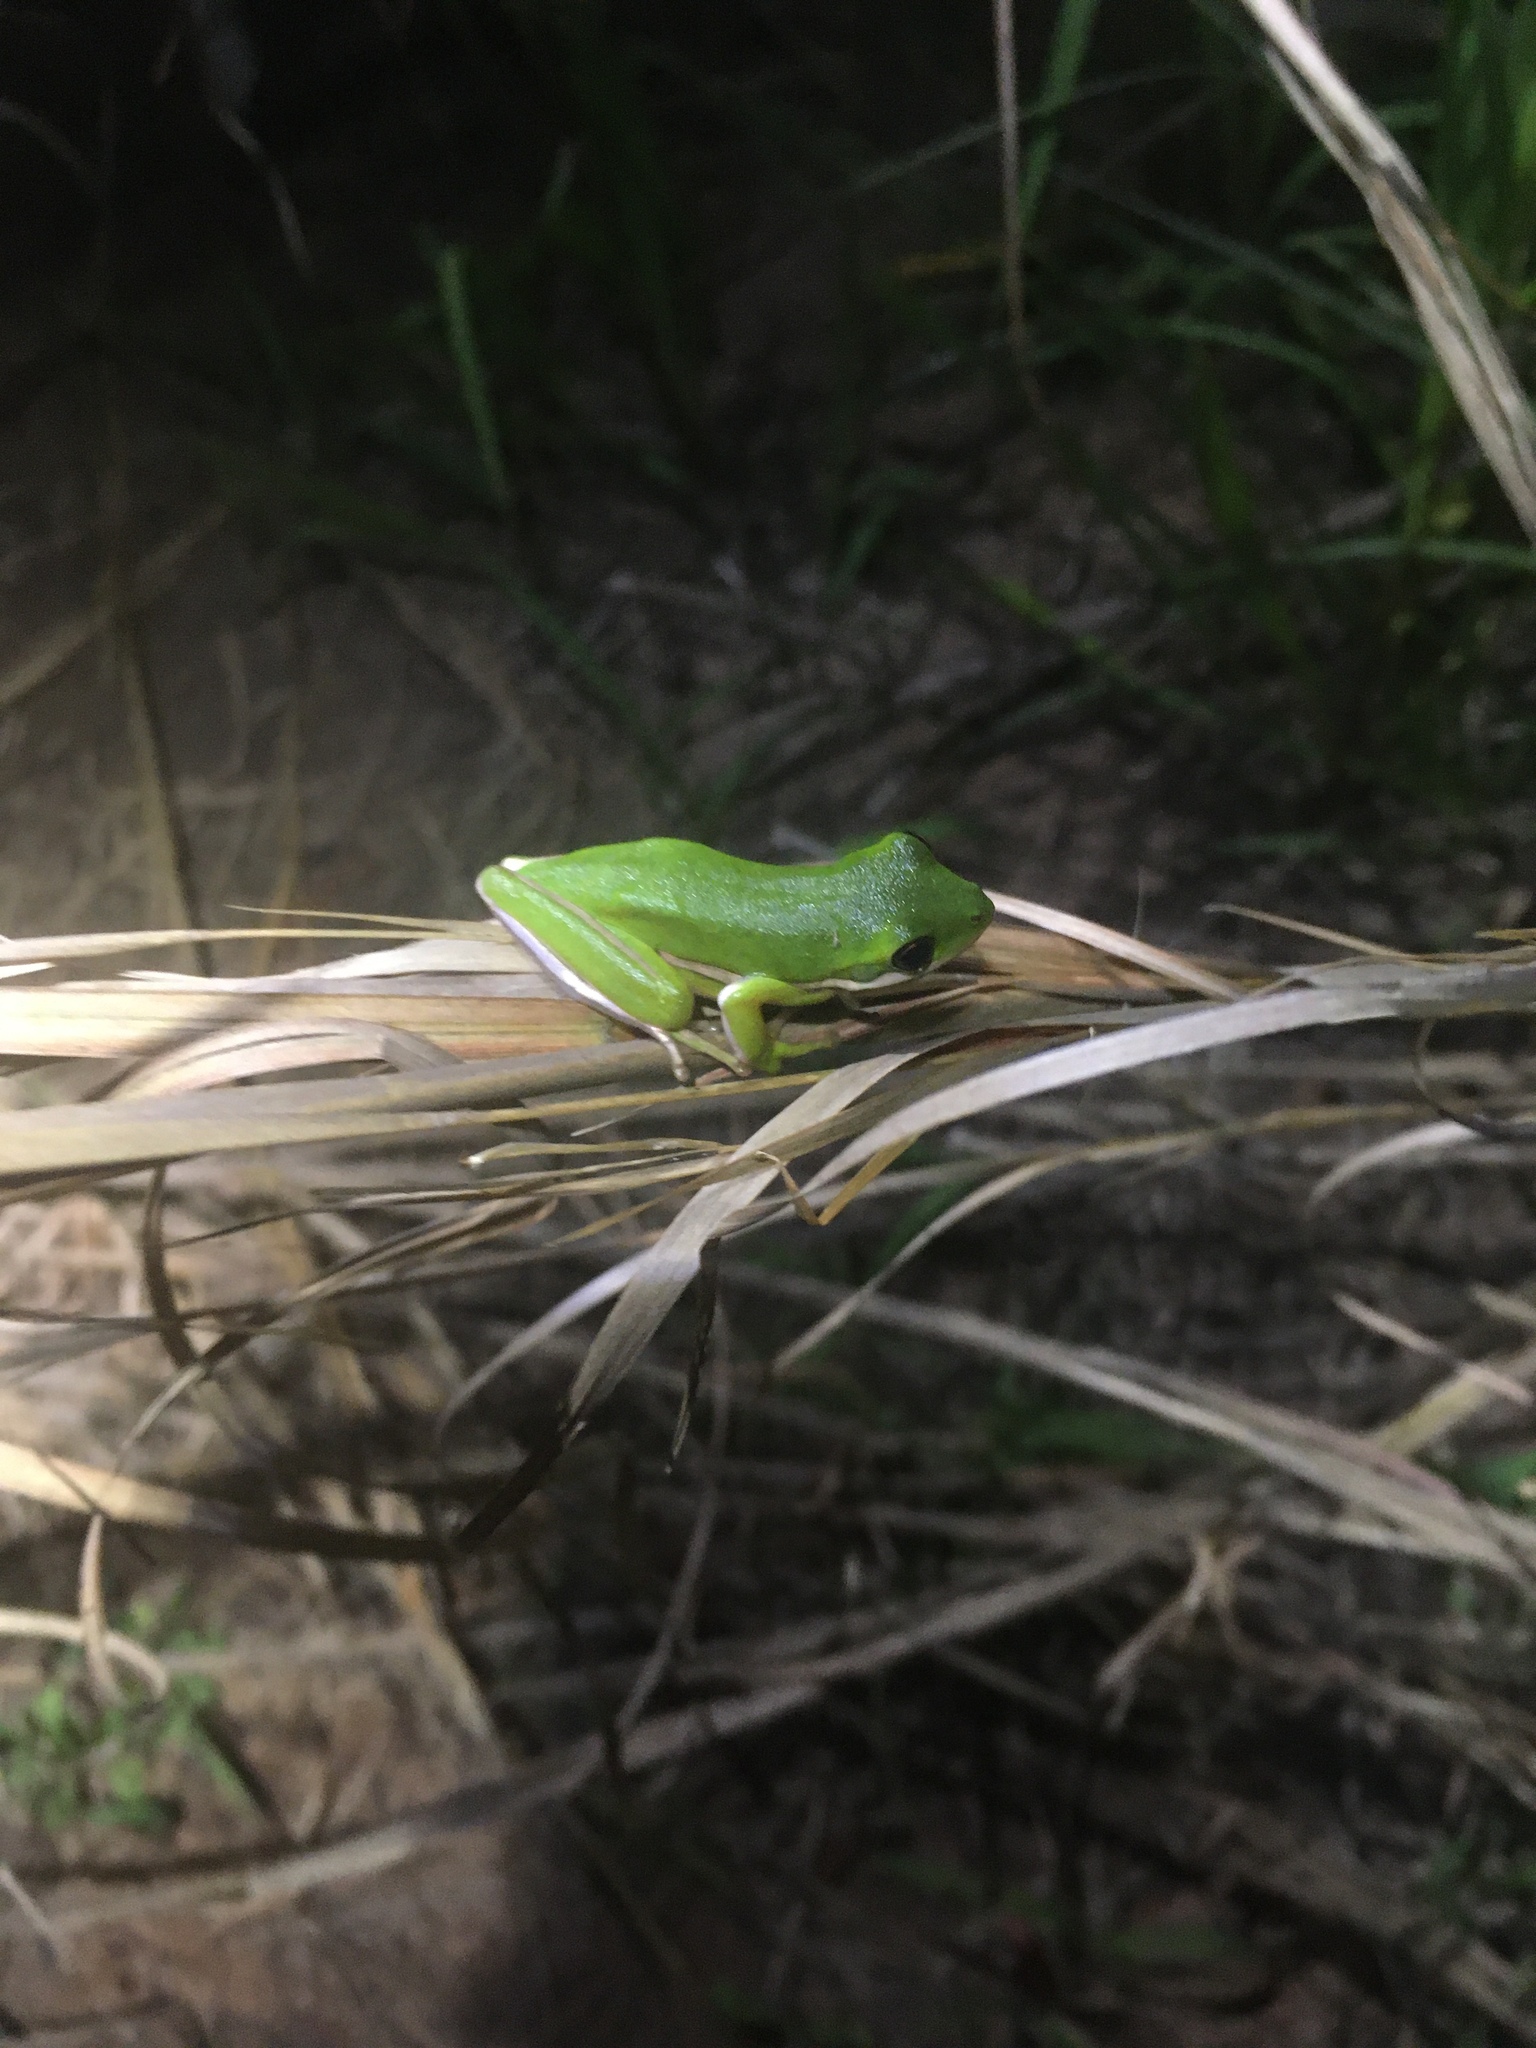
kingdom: Animalia
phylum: Chordata
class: Amphibia
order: Anura
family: Hylidae
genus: Dryophytes
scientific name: Dryophytes cinereus
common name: Green treefrog
